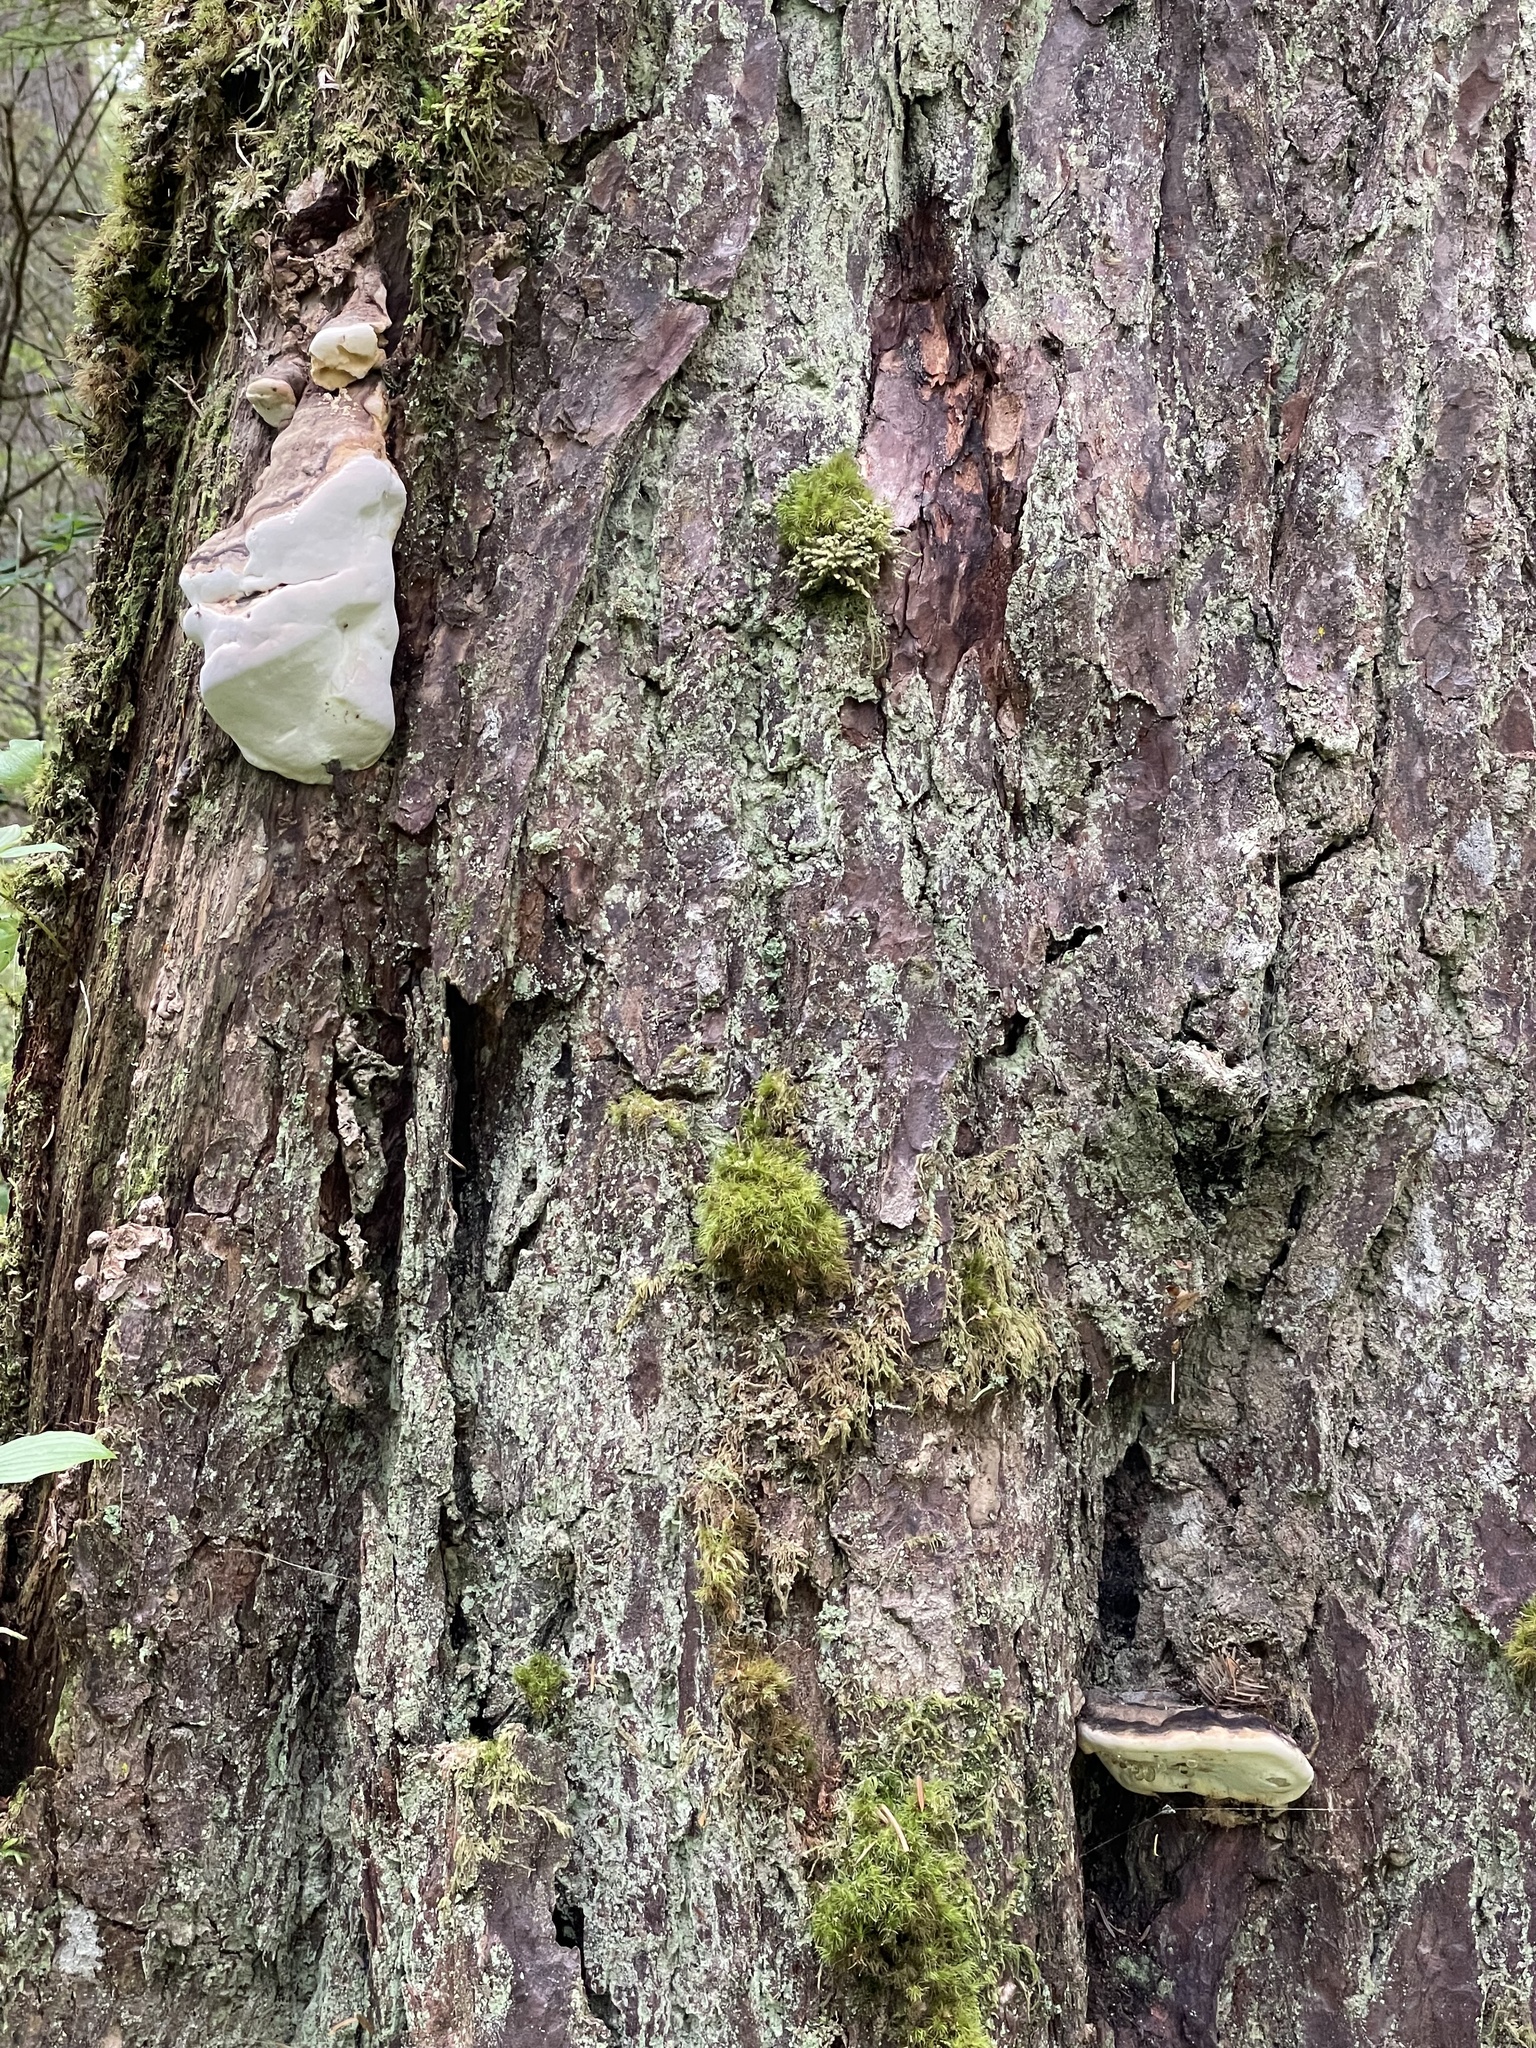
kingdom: Fungi
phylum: Basidiomycota
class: Agaricomycetes
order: Polyporales
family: Fomitopsidaceae
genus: Fomitopsis
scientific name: Fomitopsis ochracea
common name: American brown fomitopsis
